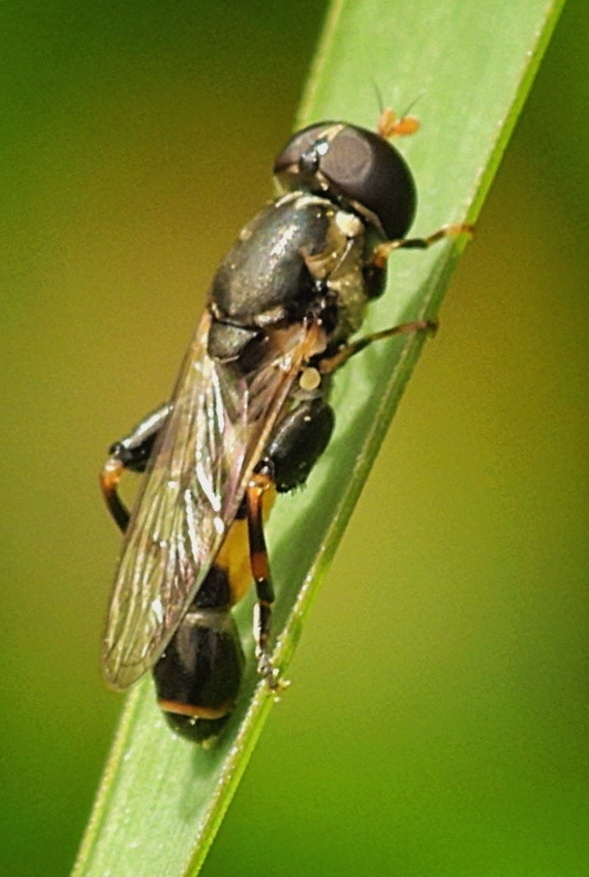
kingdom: Animalia
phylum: Arthropoda
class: Insecta
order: Diptera
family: Syrphidae
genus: Syritta
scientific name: Syritta pipiens
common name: Hover fly
